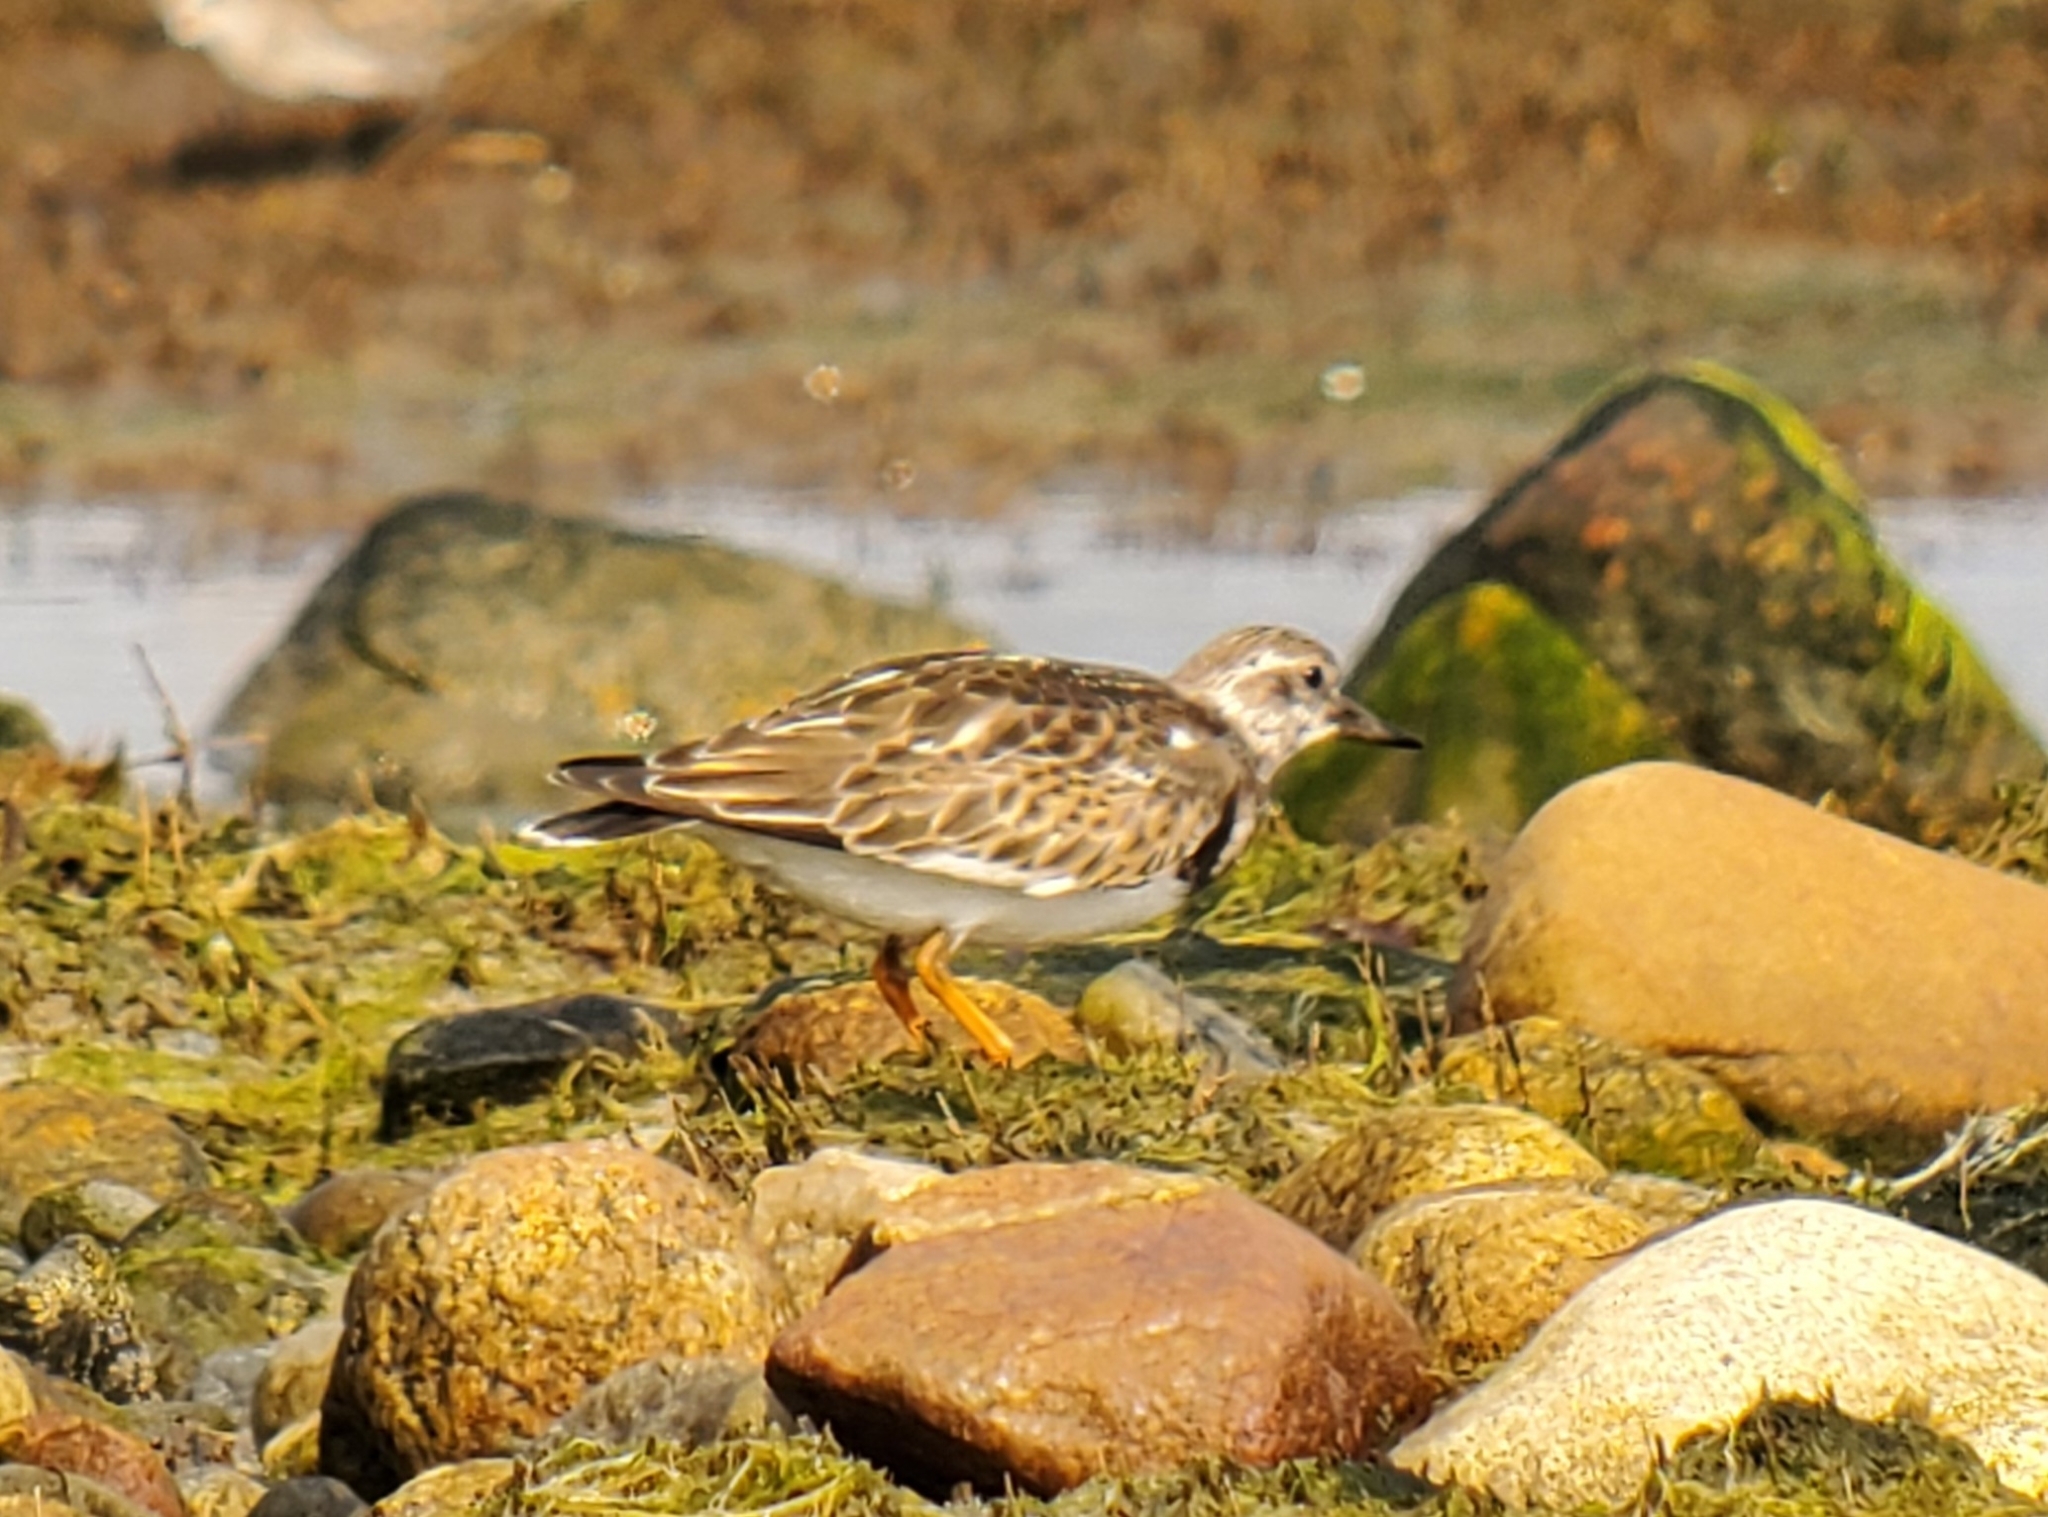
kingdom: Animalia
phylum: Chordata
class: Aves
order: Charadriiformes
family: Scolopacidae
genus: Arenaria
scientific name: Arenaria interpres
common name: Ruddy turnstone
